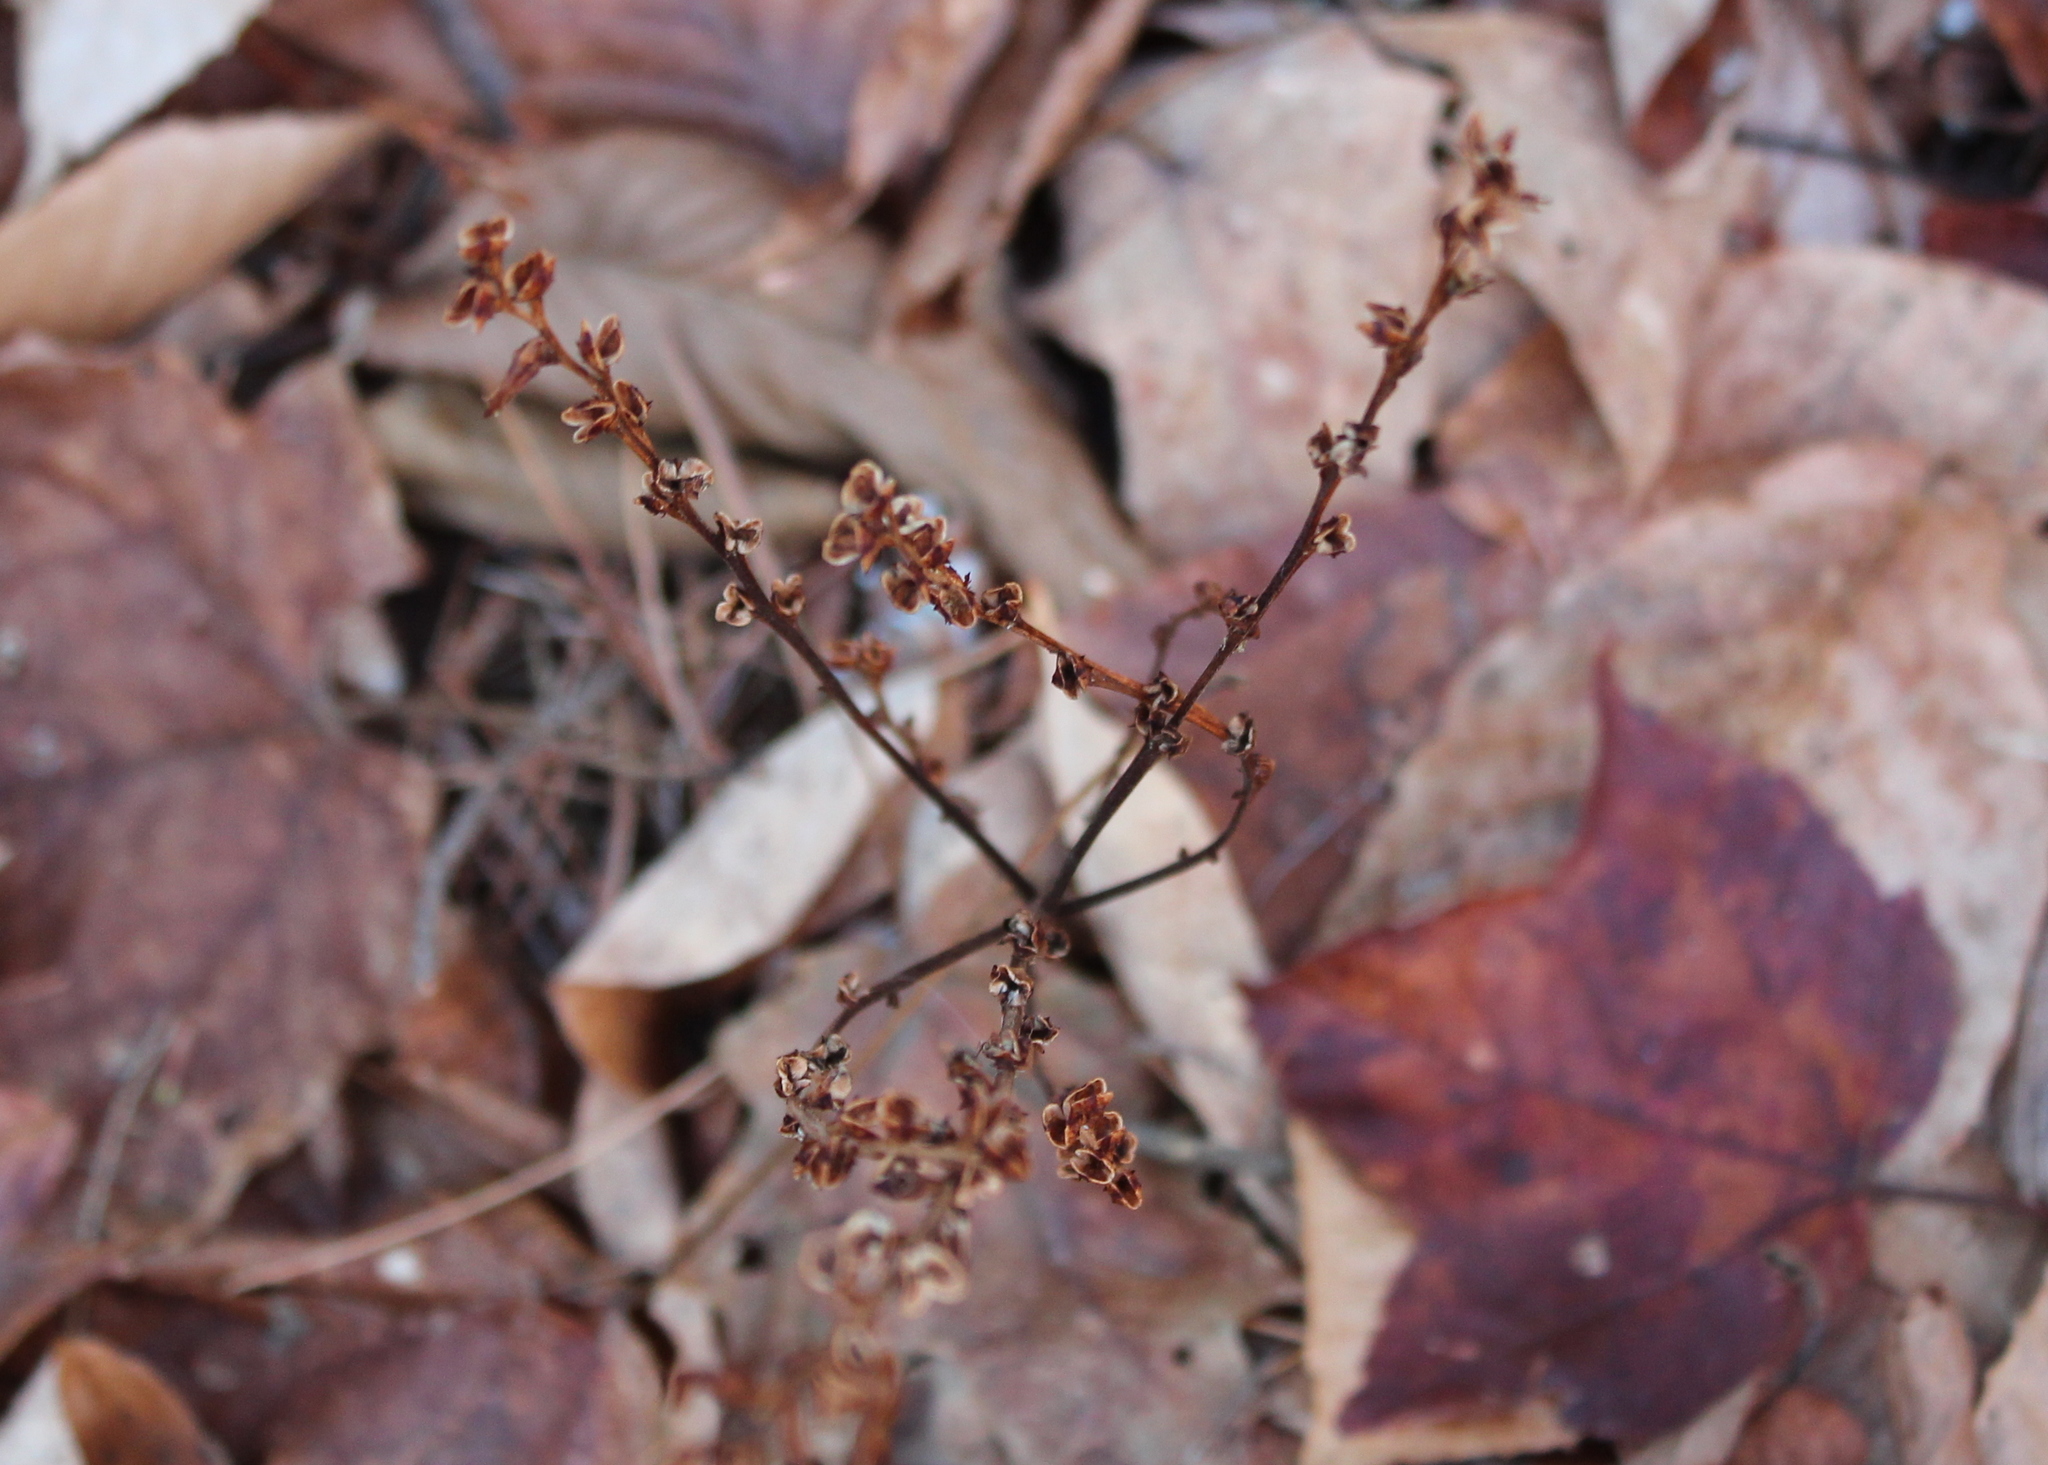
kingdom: Plantae
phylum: Tracheophyta
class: Magnoliopsida
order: Lamiales
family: Orobanchaceae
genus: Epifagus
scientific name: Epifagus virginiana
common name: Beechdrops
